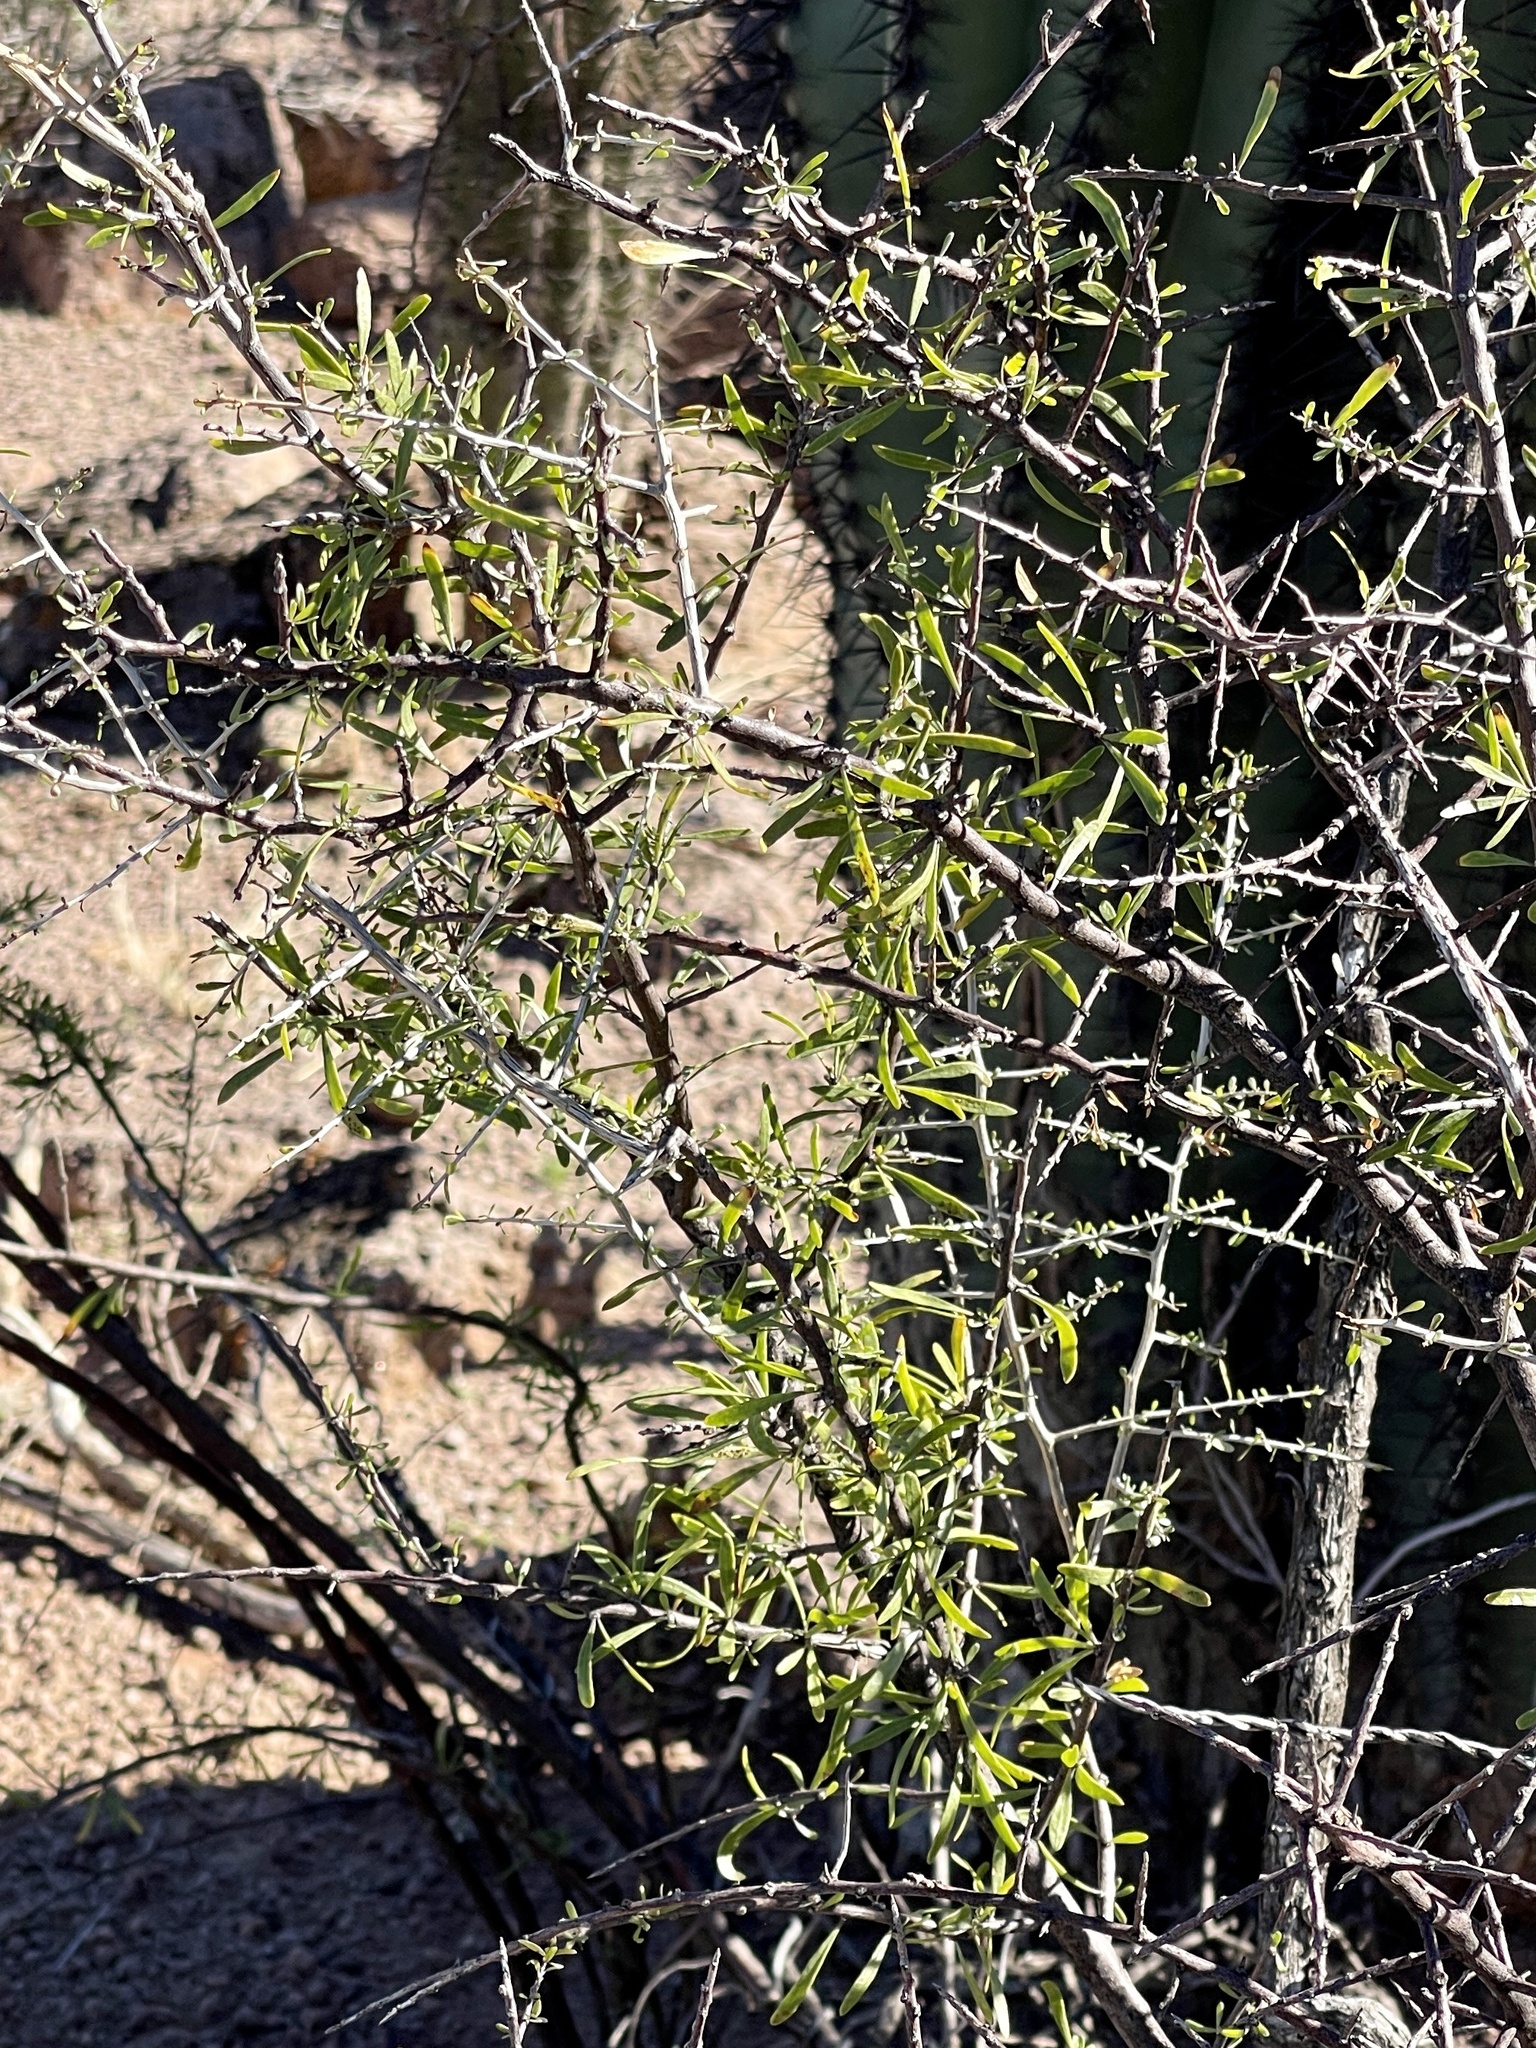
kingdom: Plantae
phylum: Tracheophyta
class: Magnoliopsida
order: Solanales
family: Solanaceae
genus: Lycium
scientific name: Lycium berlandieri
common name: Berlandier wolfberry
